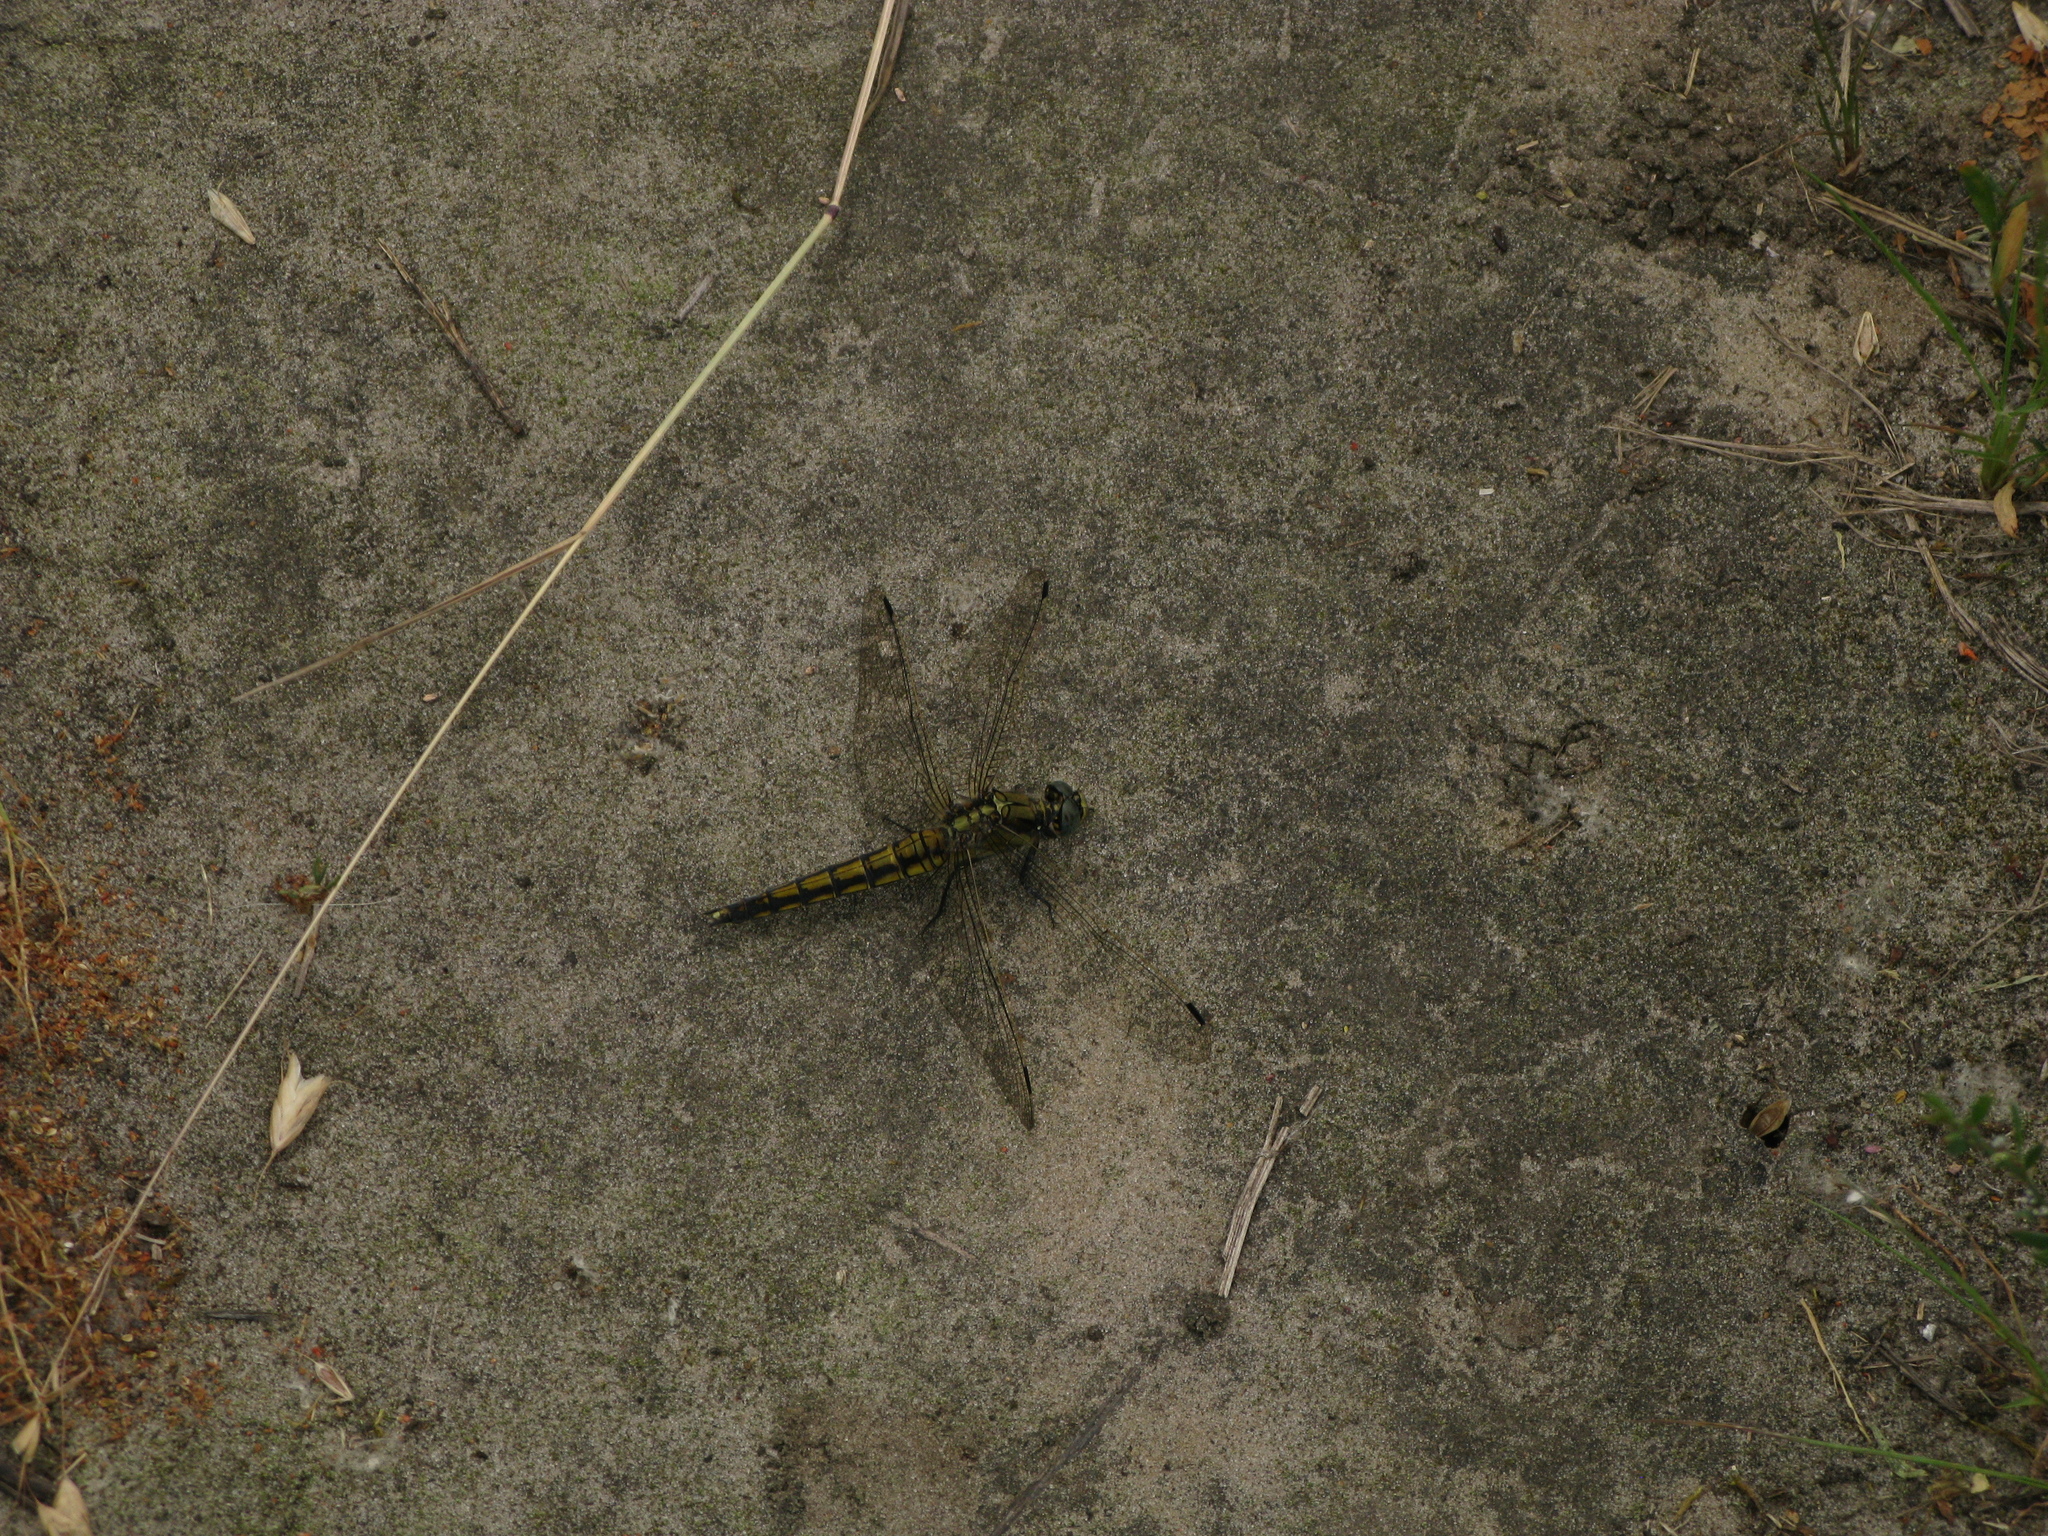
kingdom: Animalia
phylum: Arthropoda
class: Insecta
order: Odonata
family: Libellulidae
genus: Orthetrum
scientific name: Orthetrum cancellatum
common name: Black-tailed skimmer
